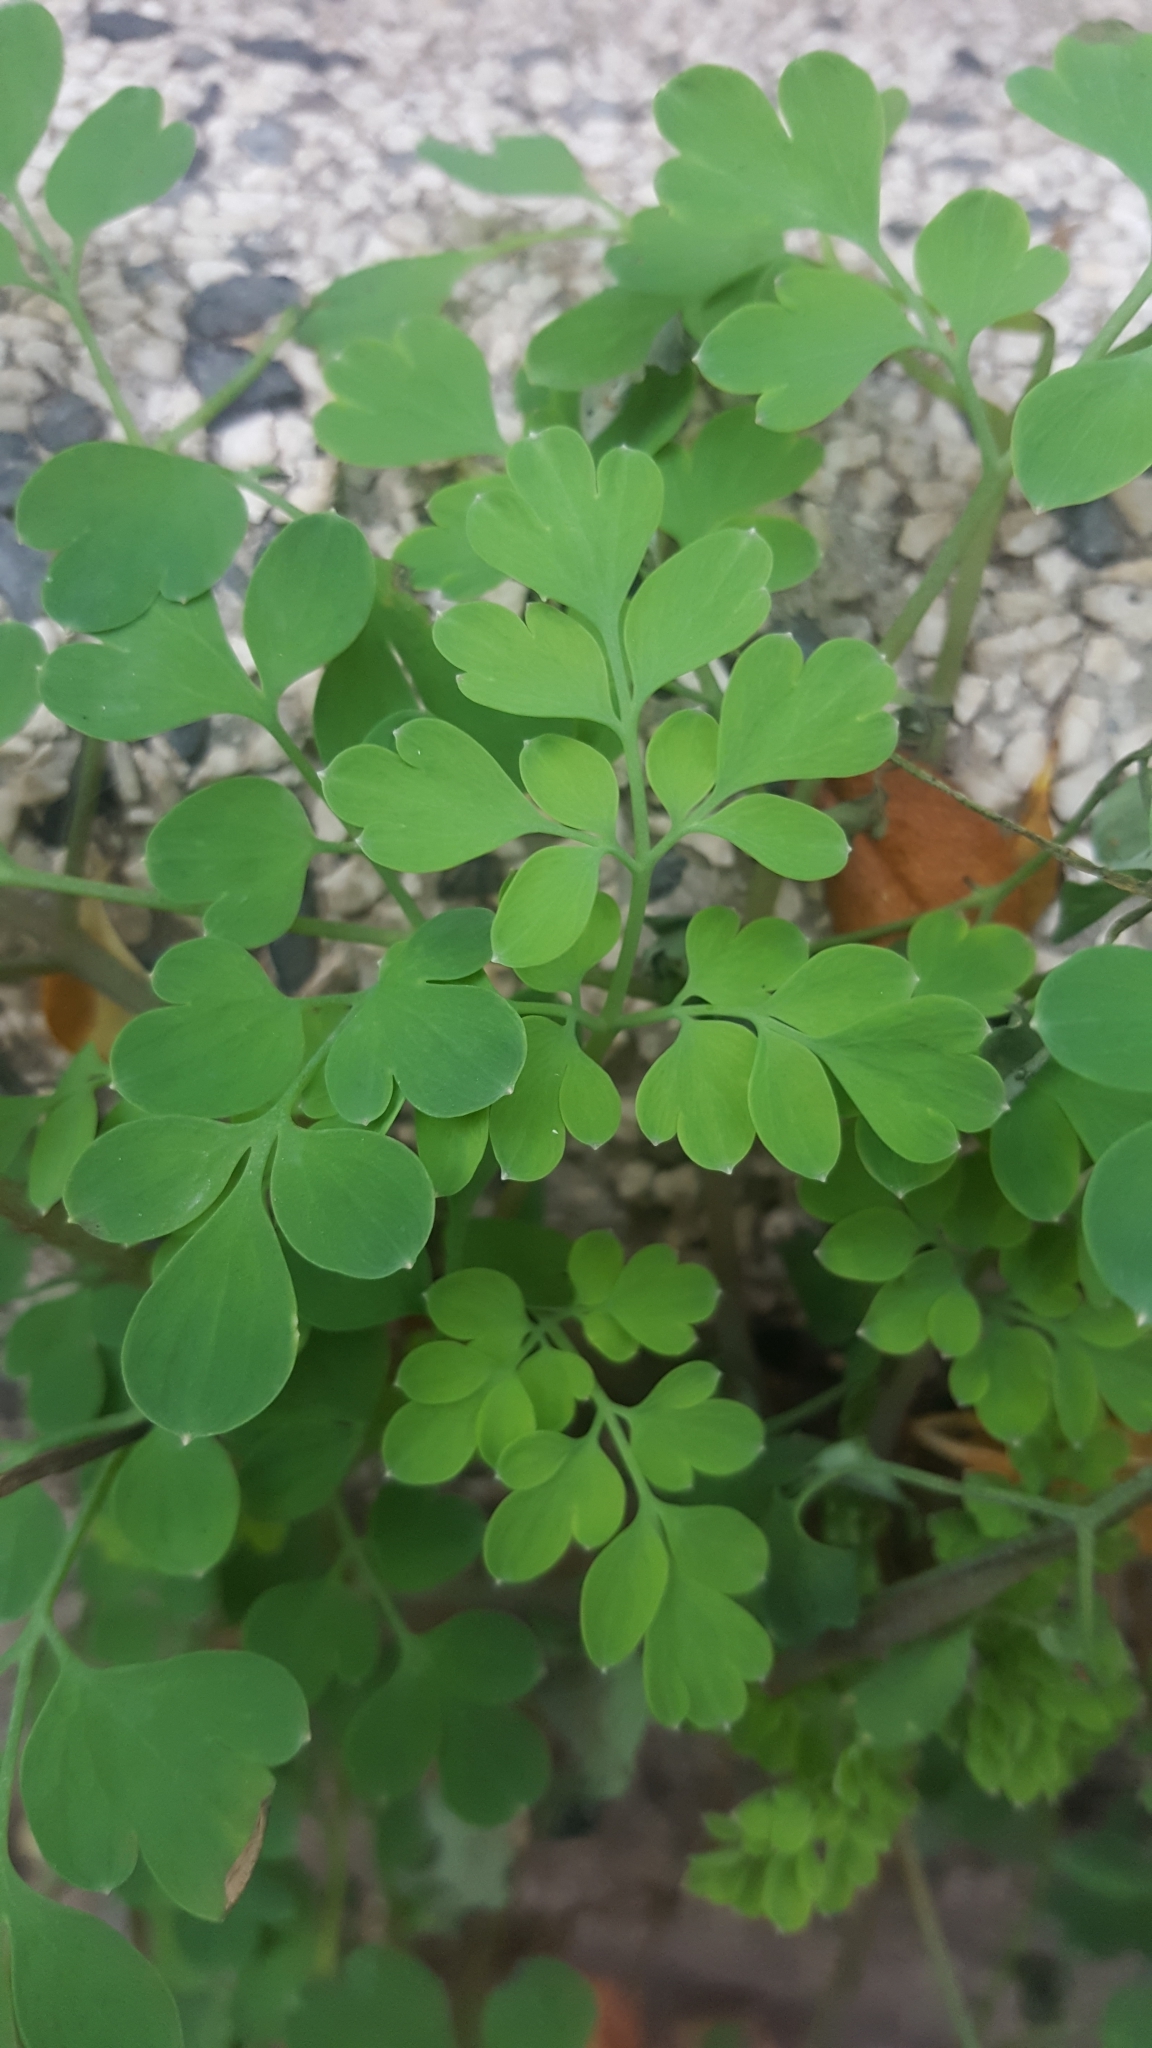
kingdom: Plantae
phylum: Tracheophyta
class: Magnoliopsida
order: Ranunculales
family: Papaveraceae
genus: Pseudofumaria
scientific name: Pseudofumaria lutea
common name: Yellow corydalis
